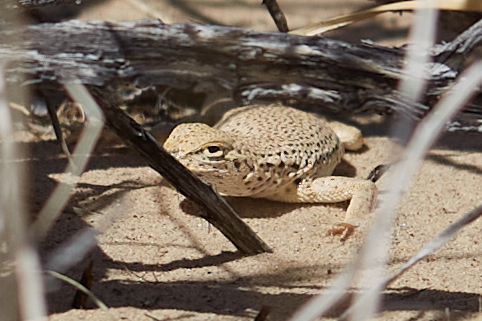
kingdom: Animalia
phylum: Chordata
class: Squamata
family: Phrynosomatidae
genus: Uma
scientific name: Uma scoparia
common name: Mojave fringe-toed lizard
